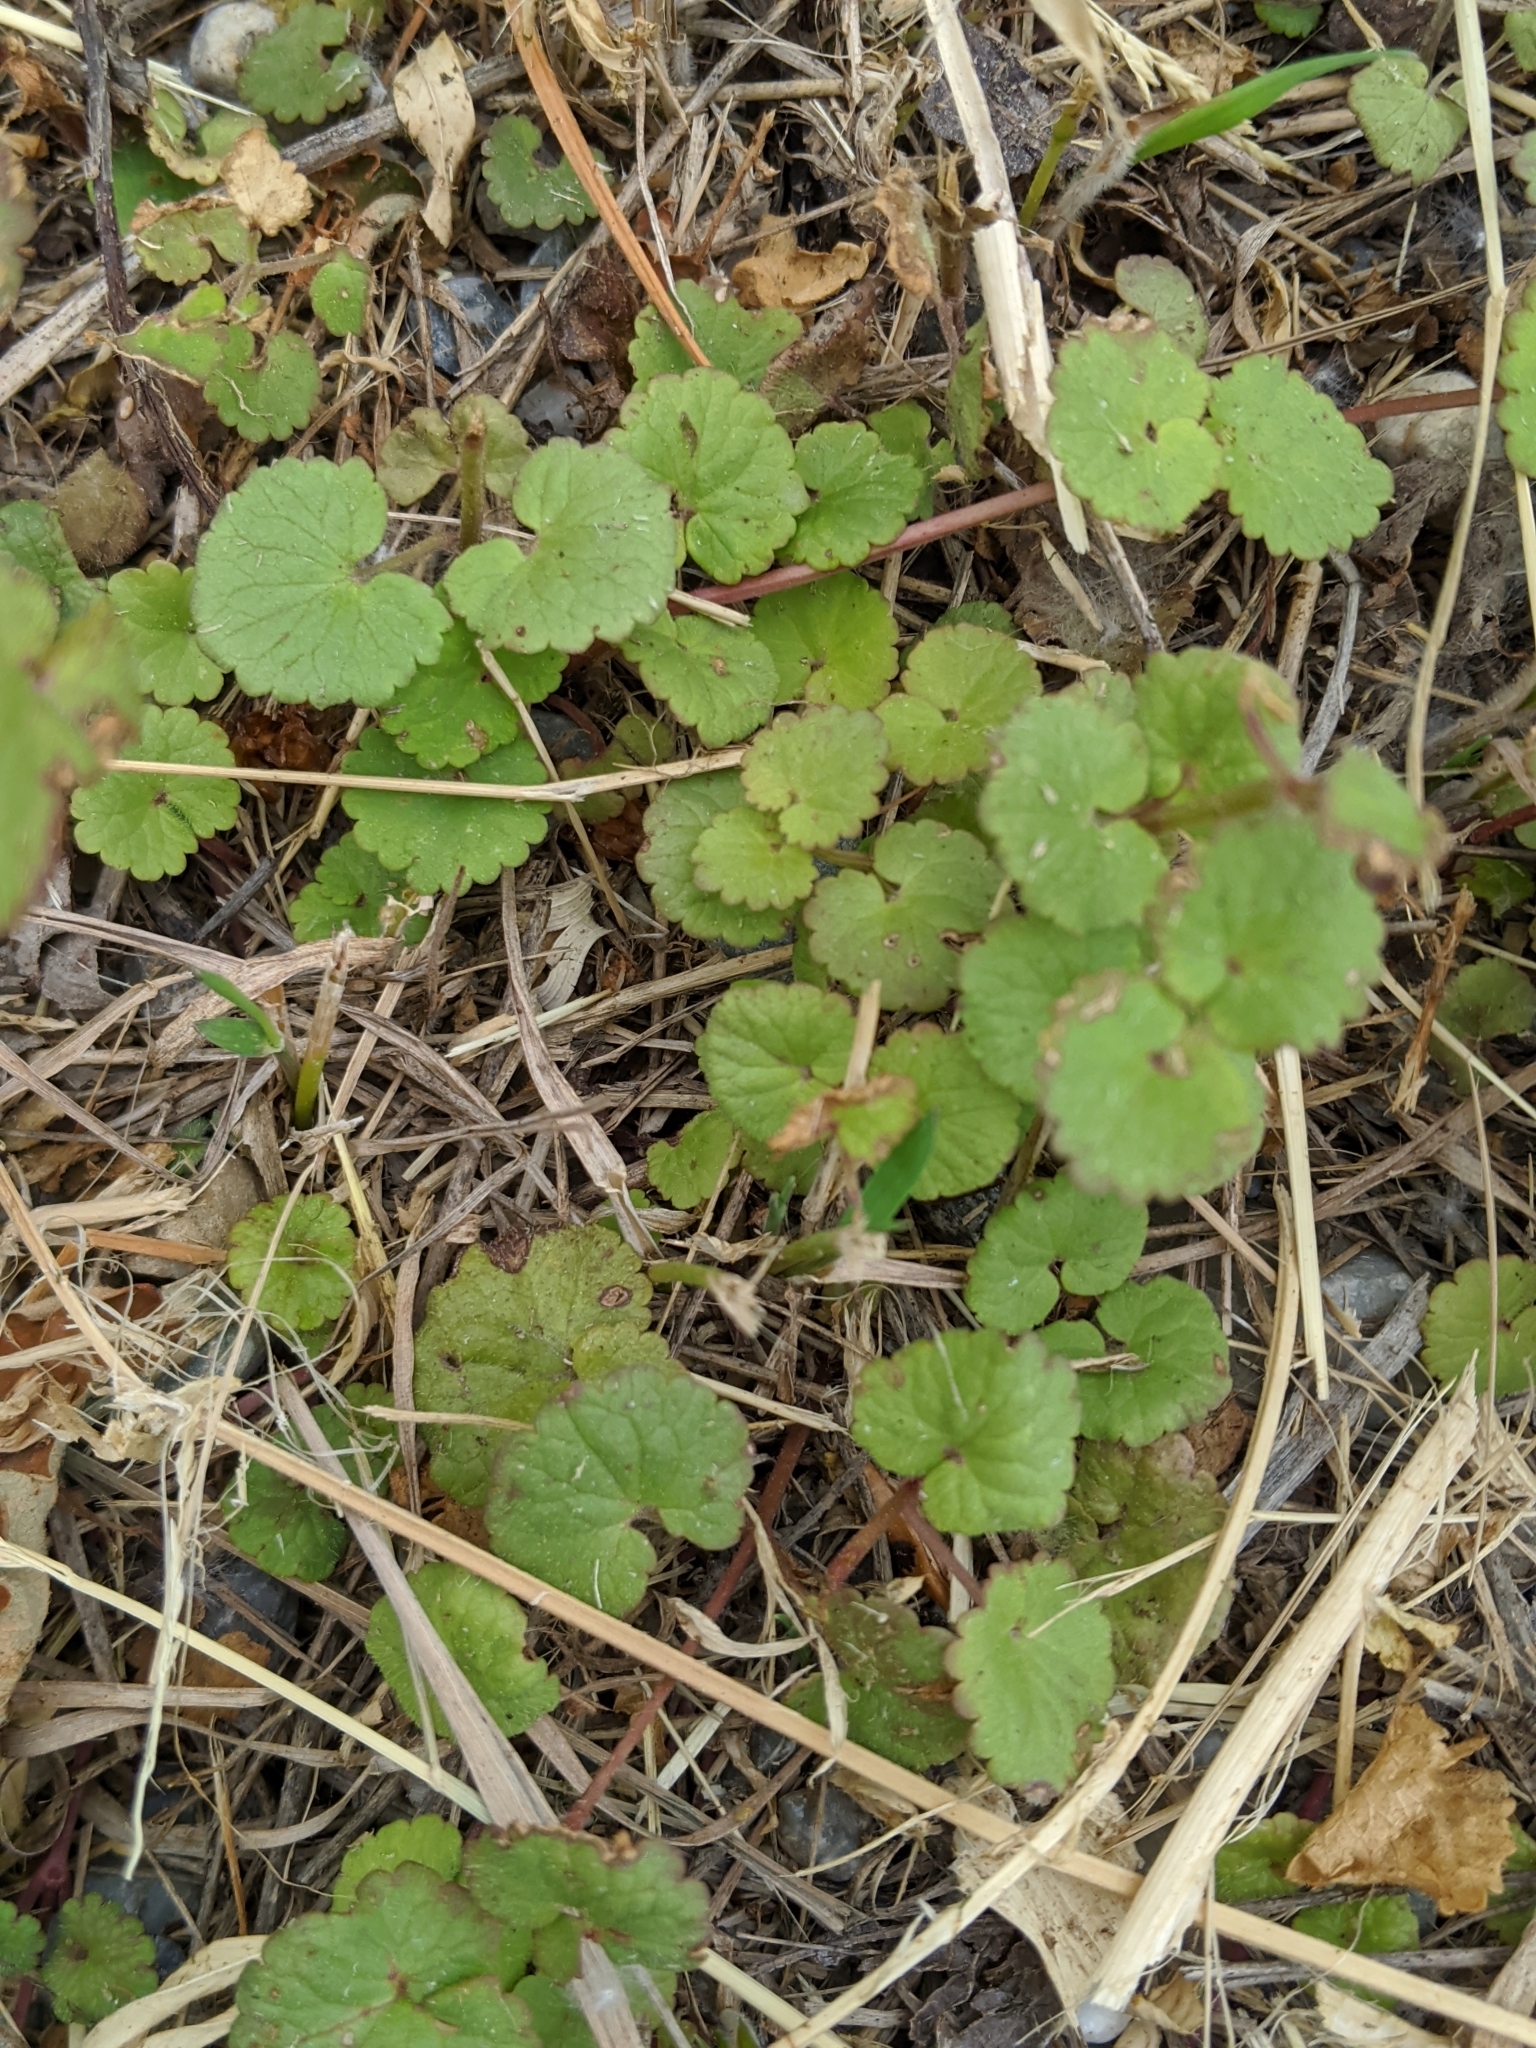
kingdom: Plantae
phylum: Tracheophyta
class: Magnoliopsida
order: Lamiales
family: Lamiaceae
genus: Glechoma
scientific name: Glechoma hederacea
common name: Ground ivy
